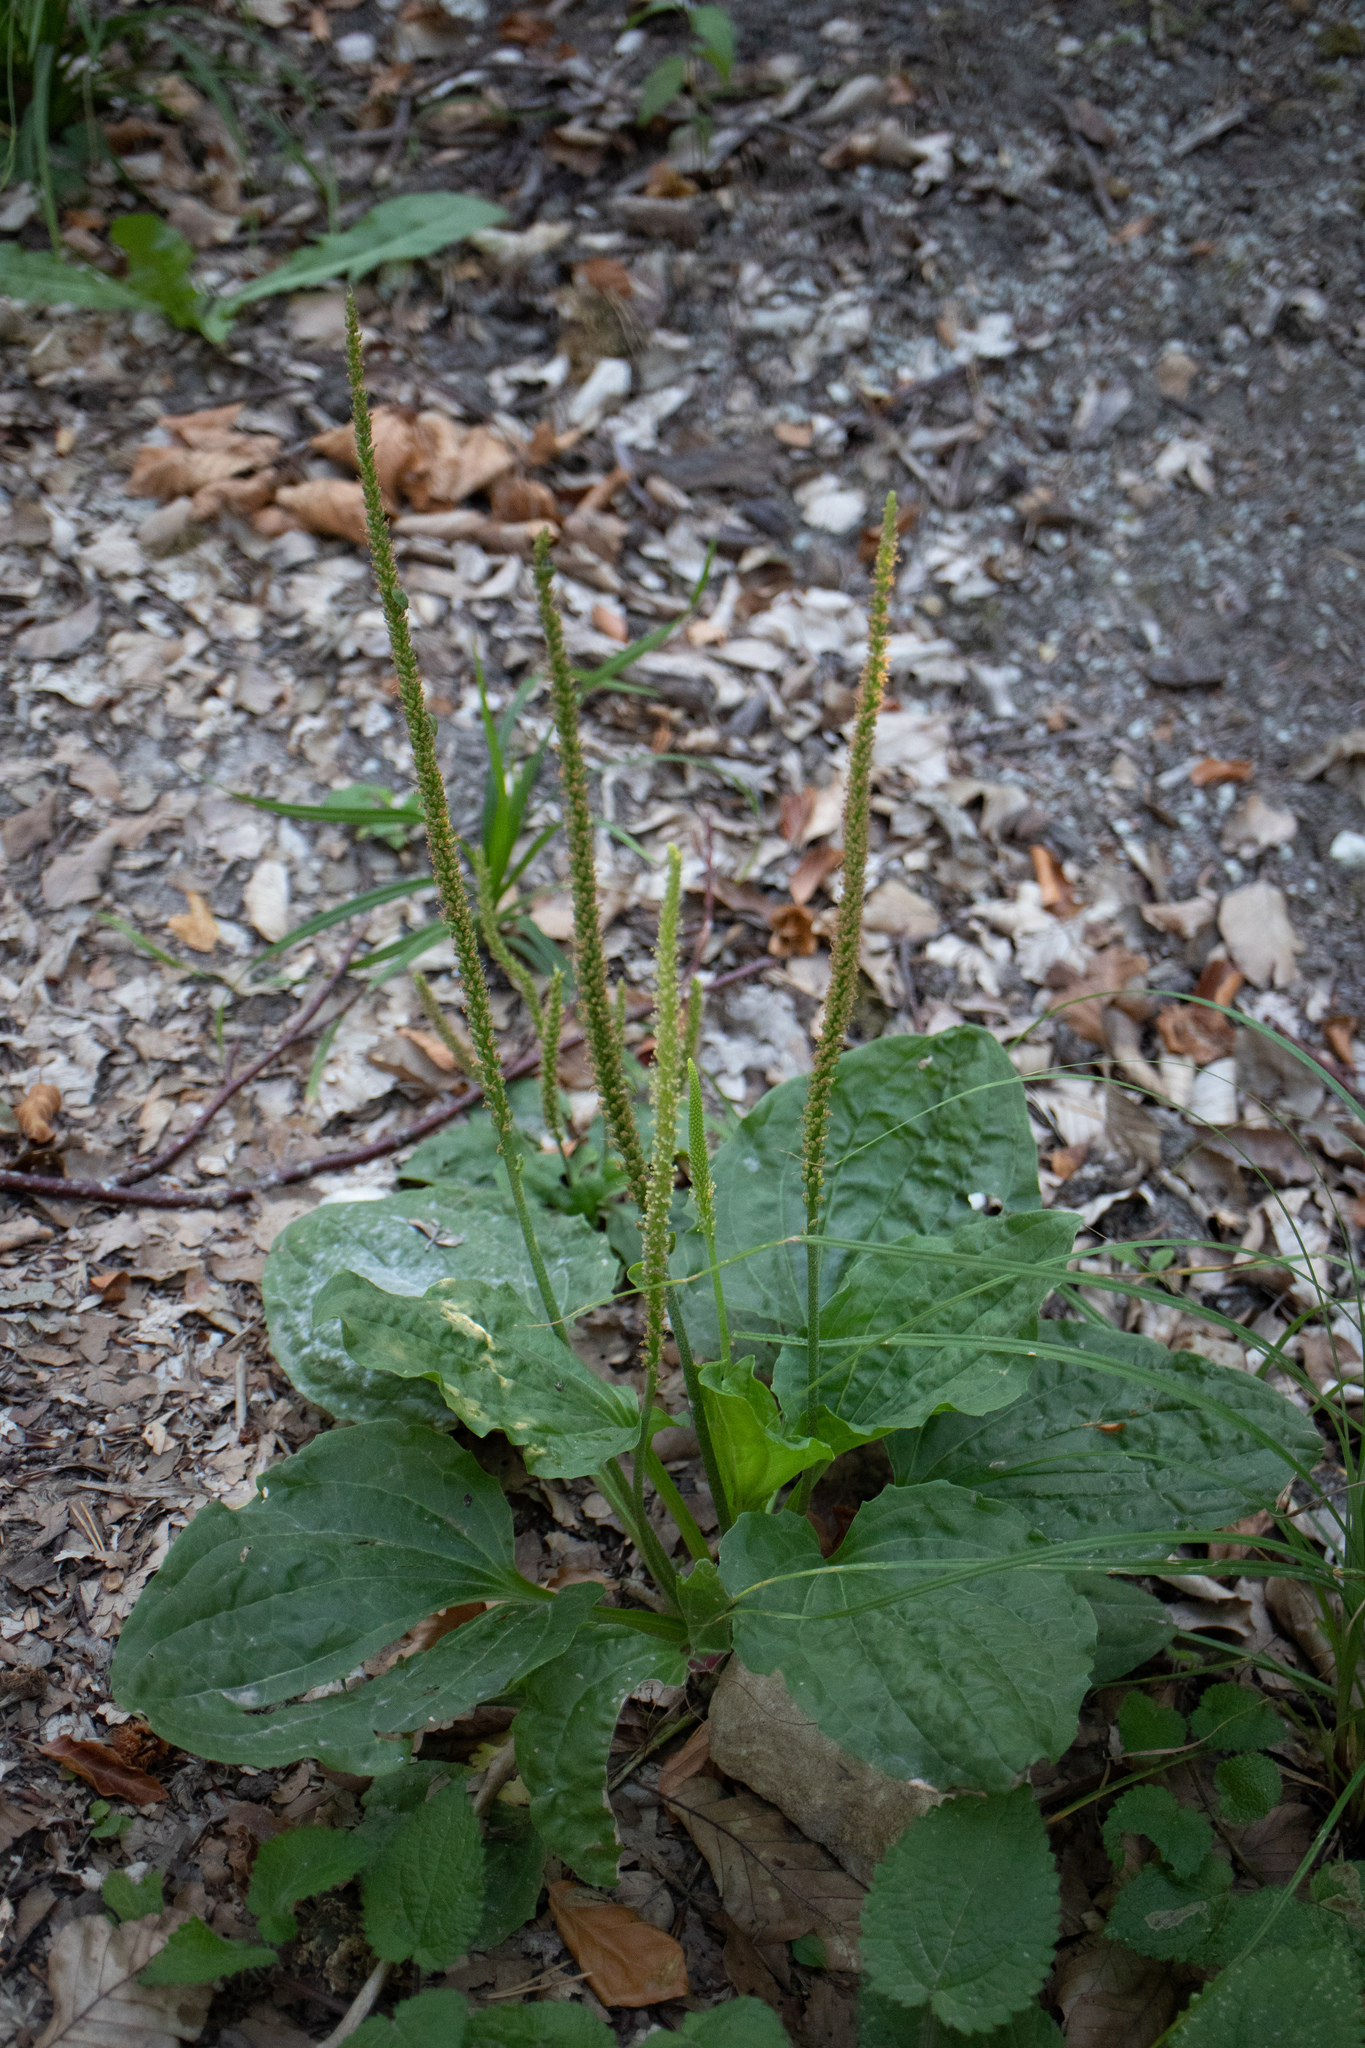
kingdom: Plantae
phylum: Tracheophyta
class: Magnoliopsida
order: Lamiales
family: Plantaginaceae
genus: Plantago
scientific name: Plantago major
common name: Common plantain
